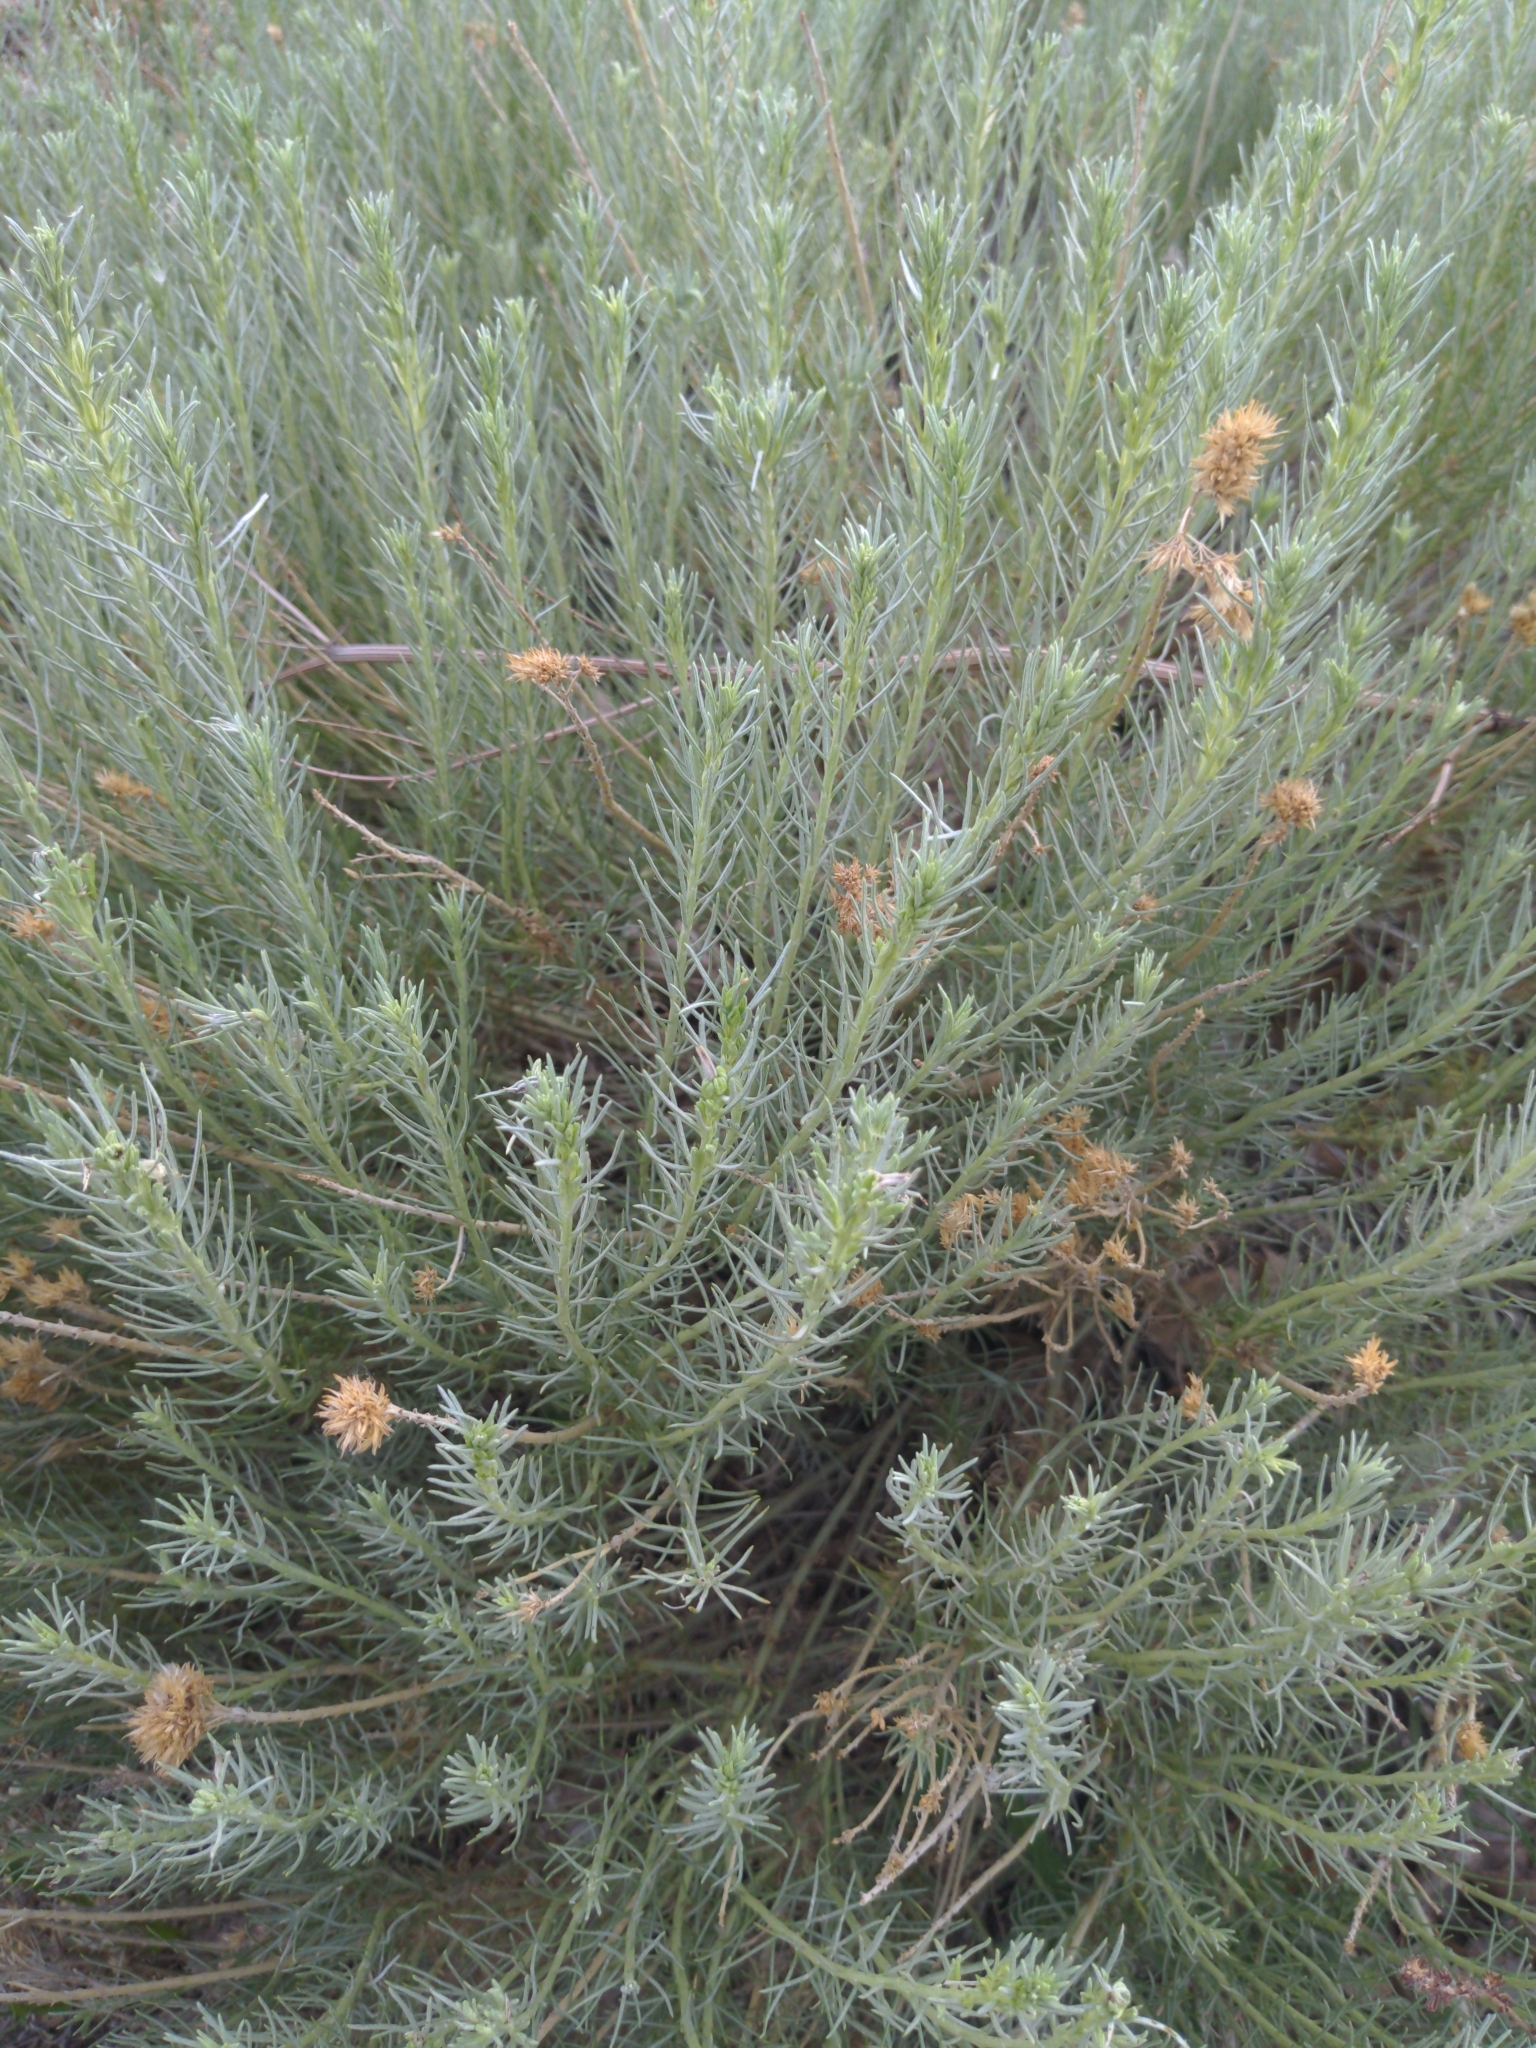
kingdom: Plantae
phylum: Tracheophyta
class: Magnoliopsida
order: Asterales
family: Asteraceae
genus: Ericameria
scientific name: Ericameria nauseosa
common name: Rubber rabbitbrush
